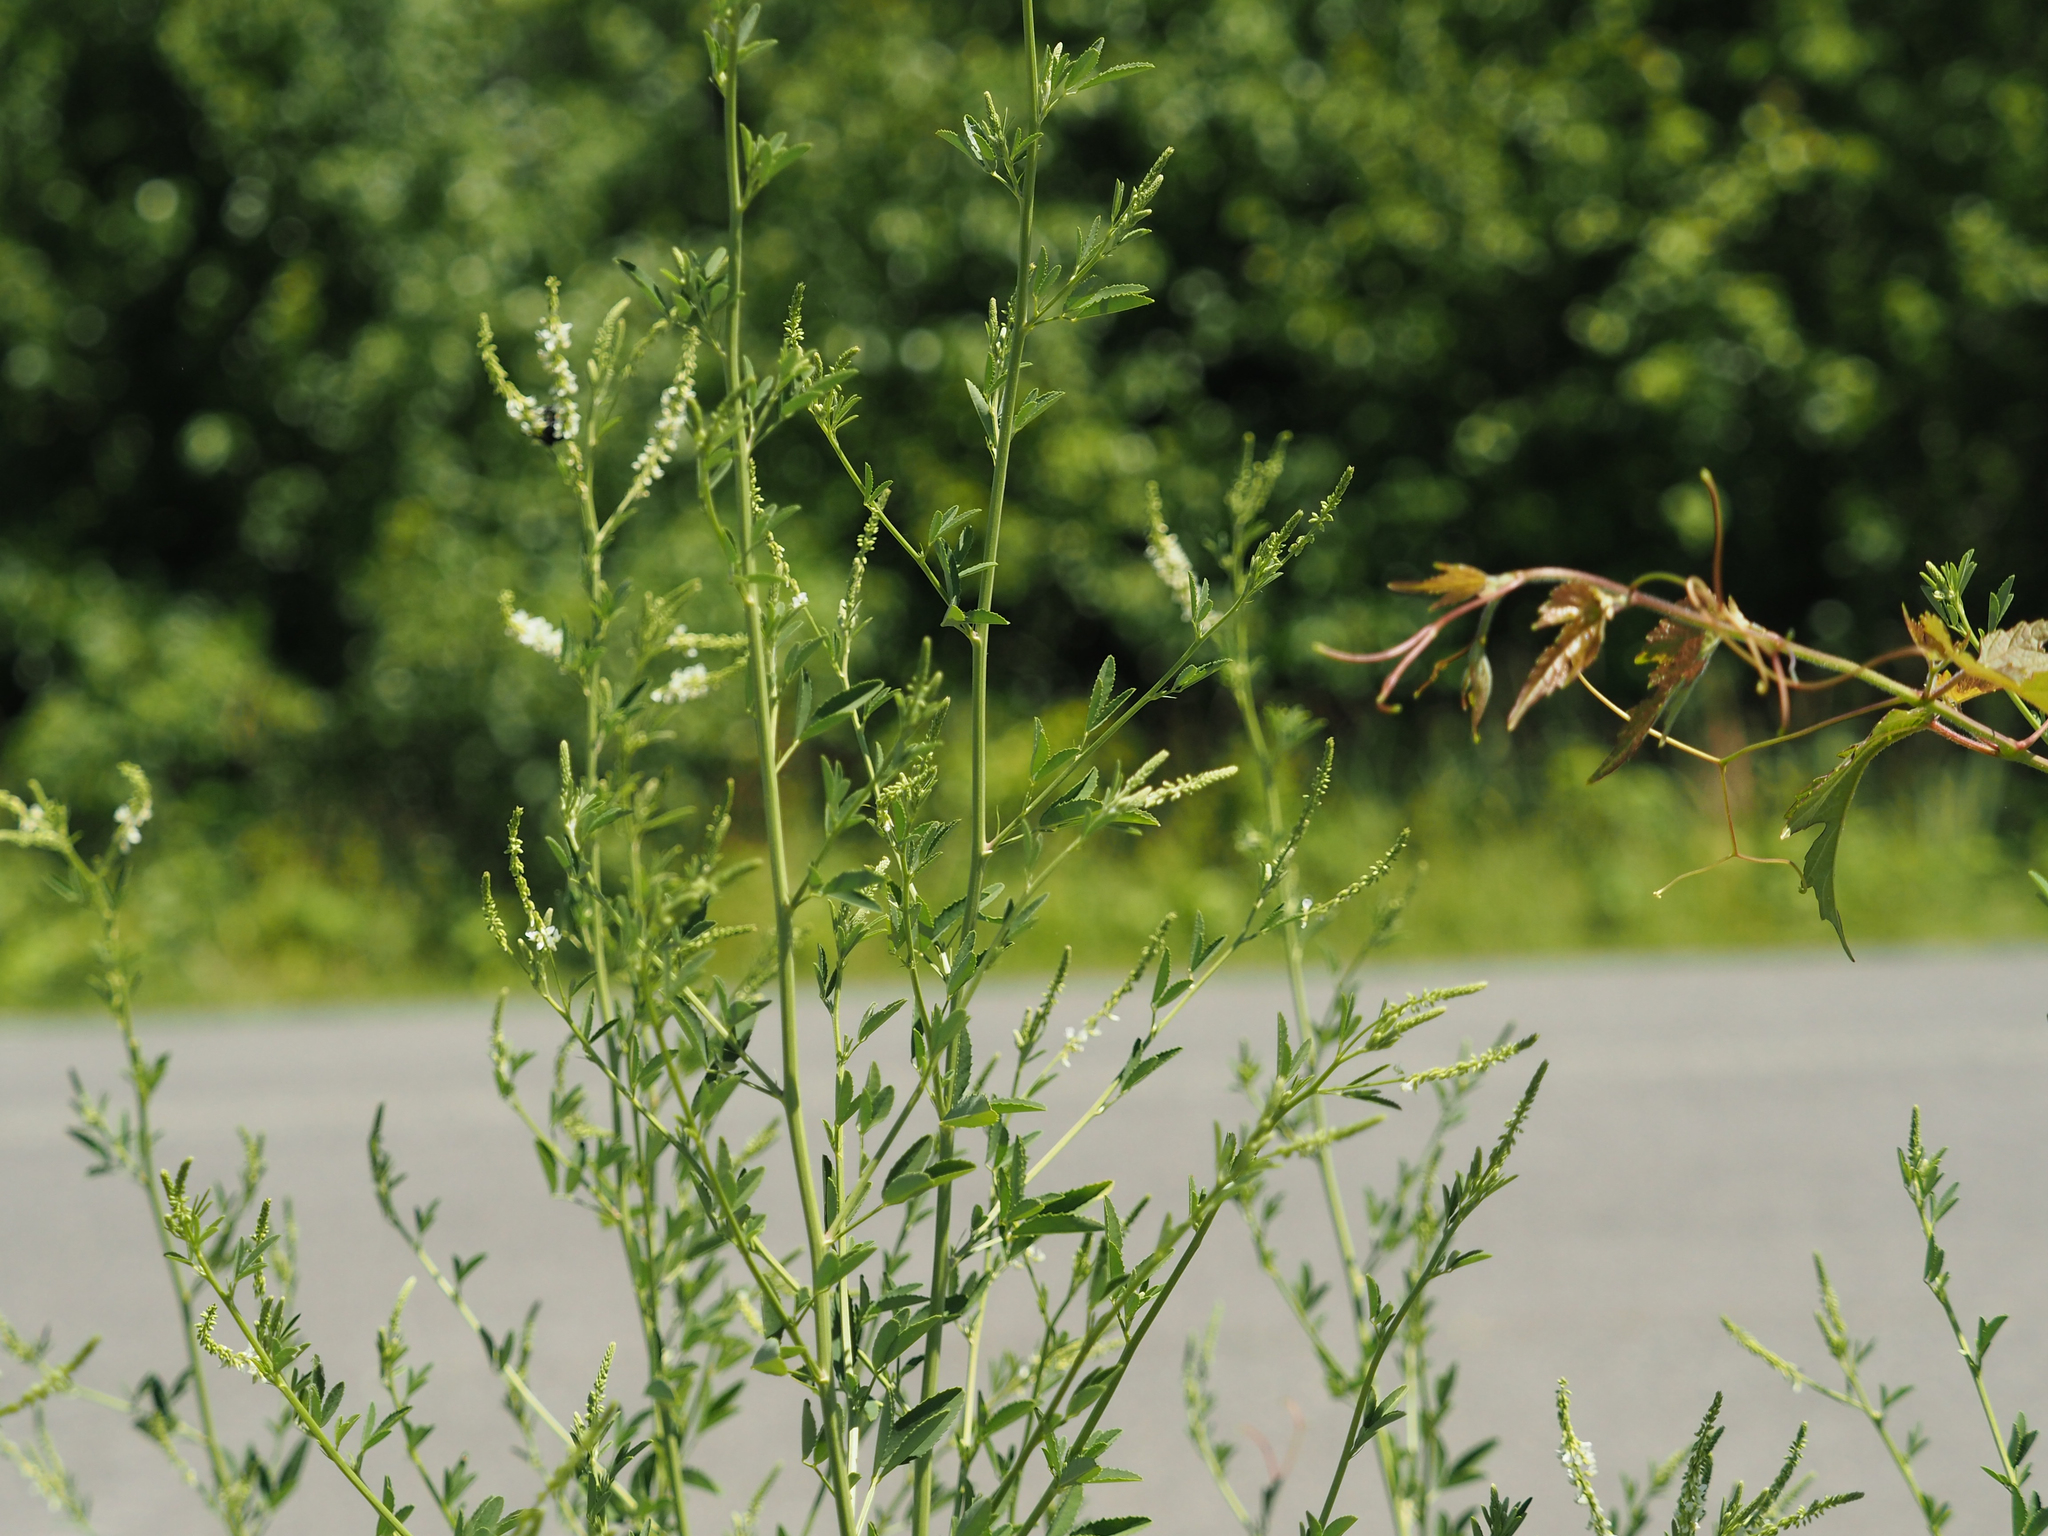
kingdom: Plantae
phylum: Tracheophyta
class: Magnoliopsida
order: Fabales
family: Fabaceae
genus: Melilotus
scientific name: Melilotus albus
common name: White melilot
